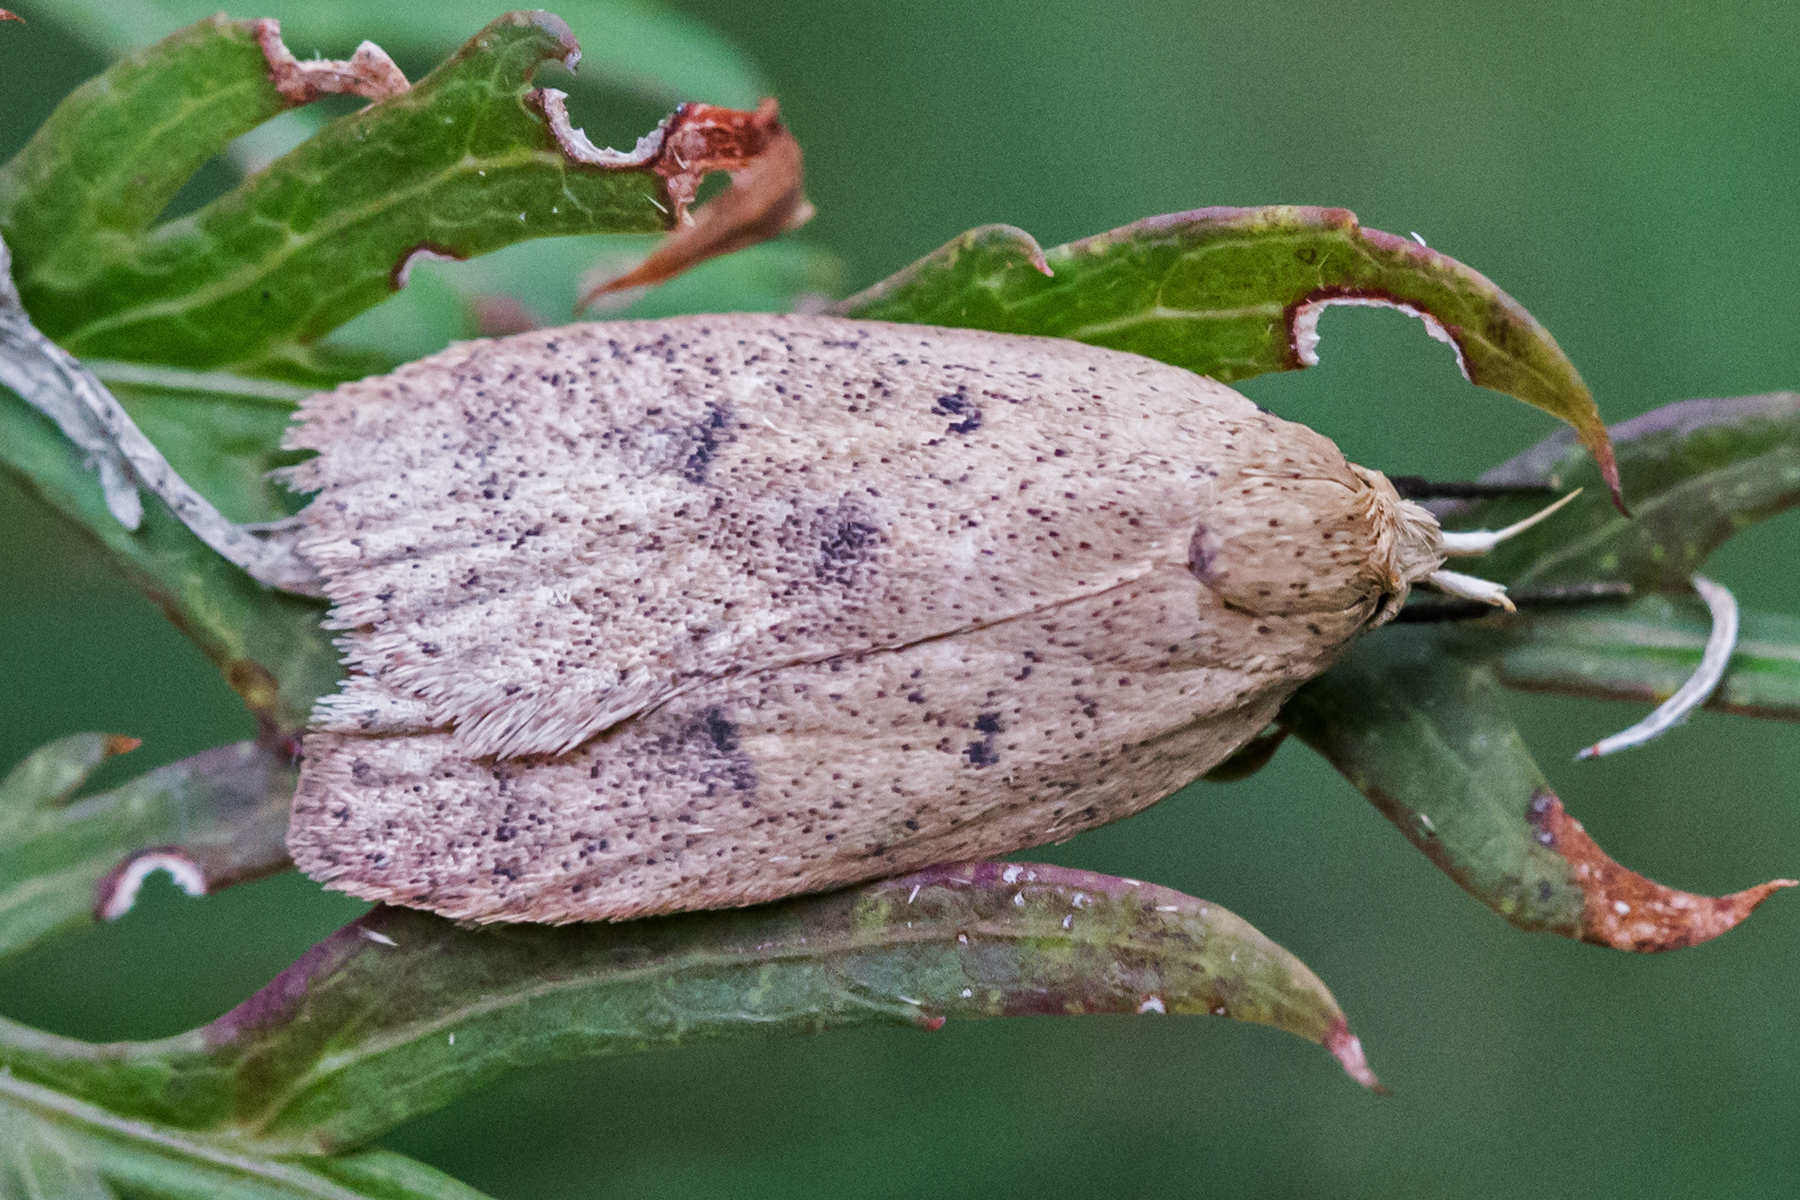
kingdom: Animalia
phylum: Arthropoda
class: Insecta
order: Lepidoptera
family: Peleopodidae
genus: Machimia
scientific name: Machimia tentoriferella
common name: Gold-striped leaftier moth
